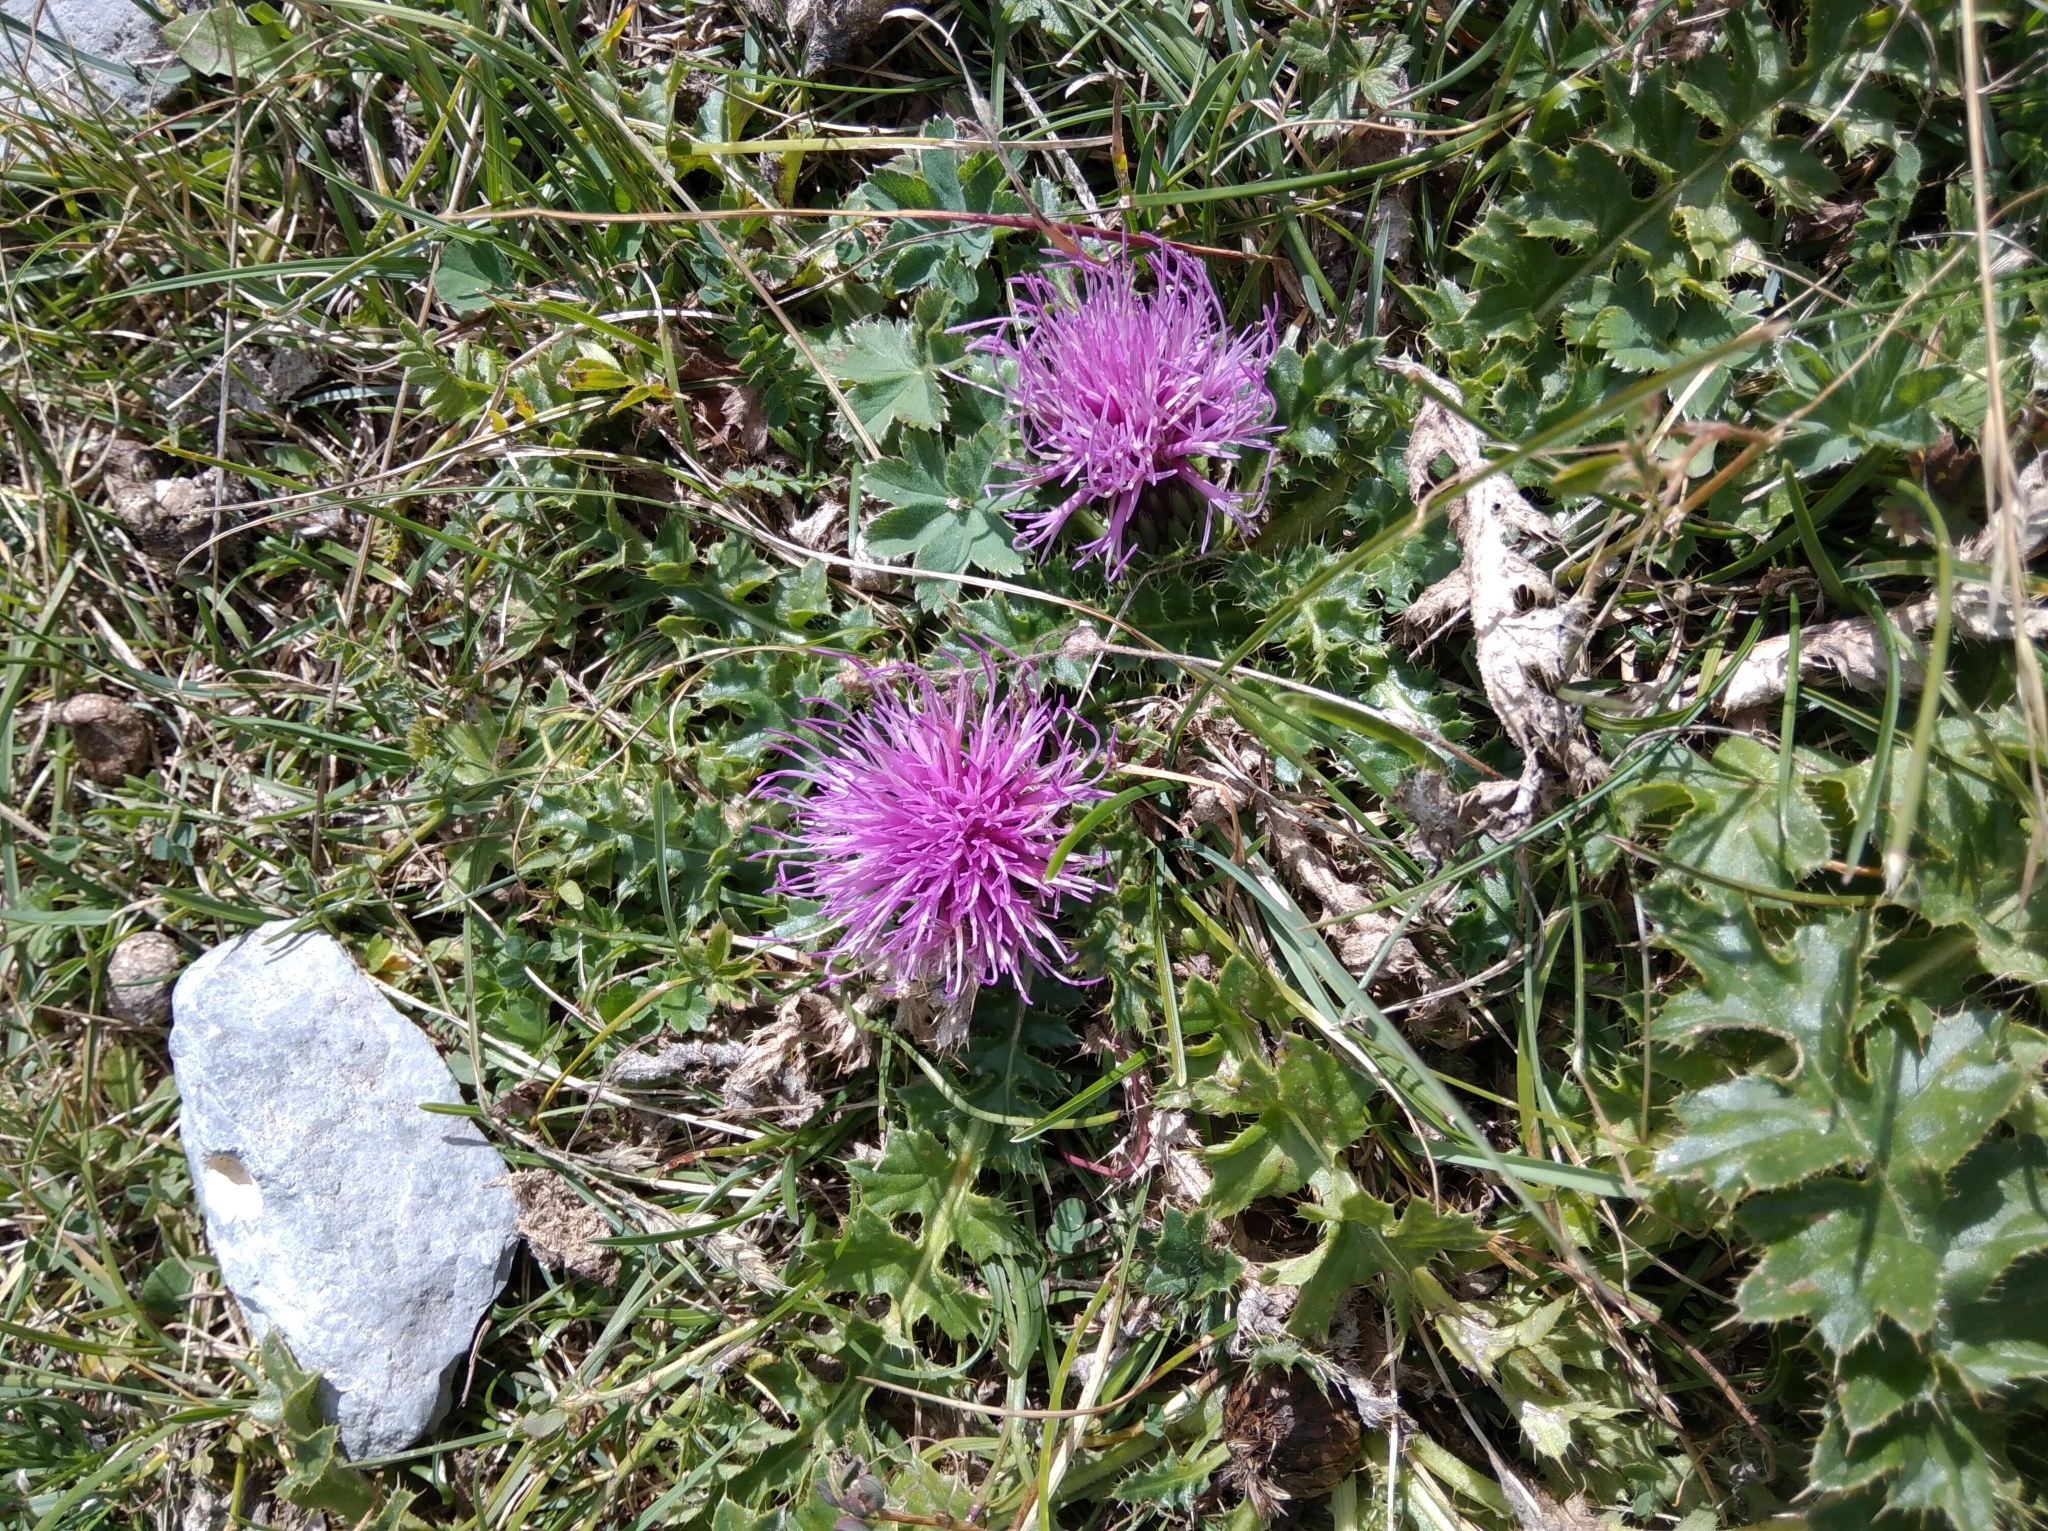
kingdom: Plantae
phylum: Tracheophyta
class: Magnoliopsida
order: Asterales
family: Asteraceae
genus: Cirsium
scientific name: Cirsium acaulon
